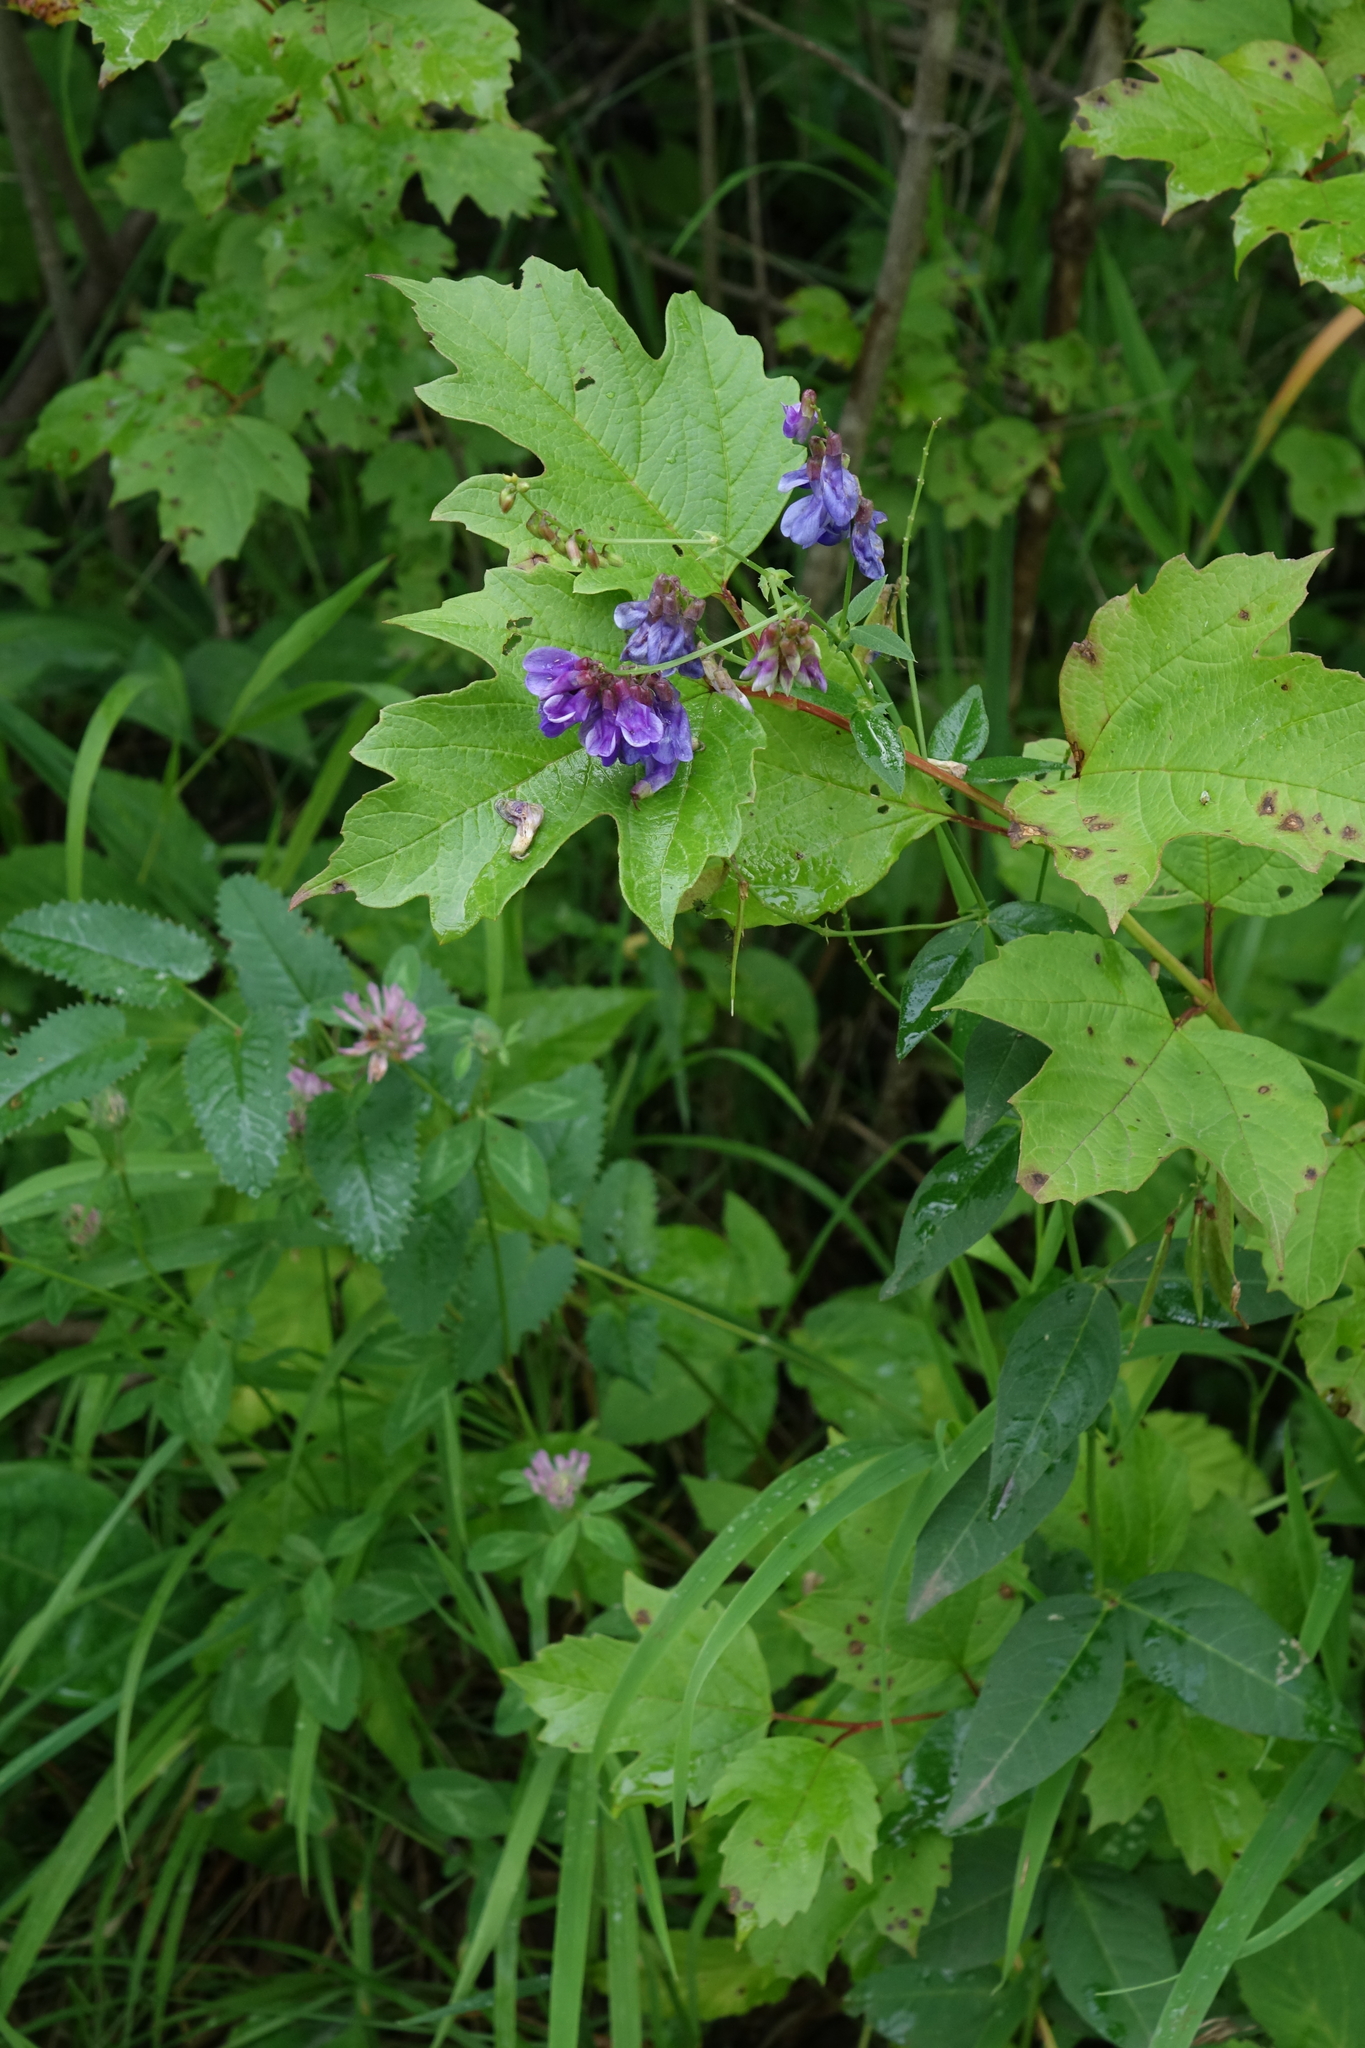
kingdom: Plantae
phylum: Tracheophyta
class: Magnoliopsida
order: Fabales
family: Fabaceae
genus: Vicia
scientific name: Vicia unijuga
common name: Two-leaf vetch
